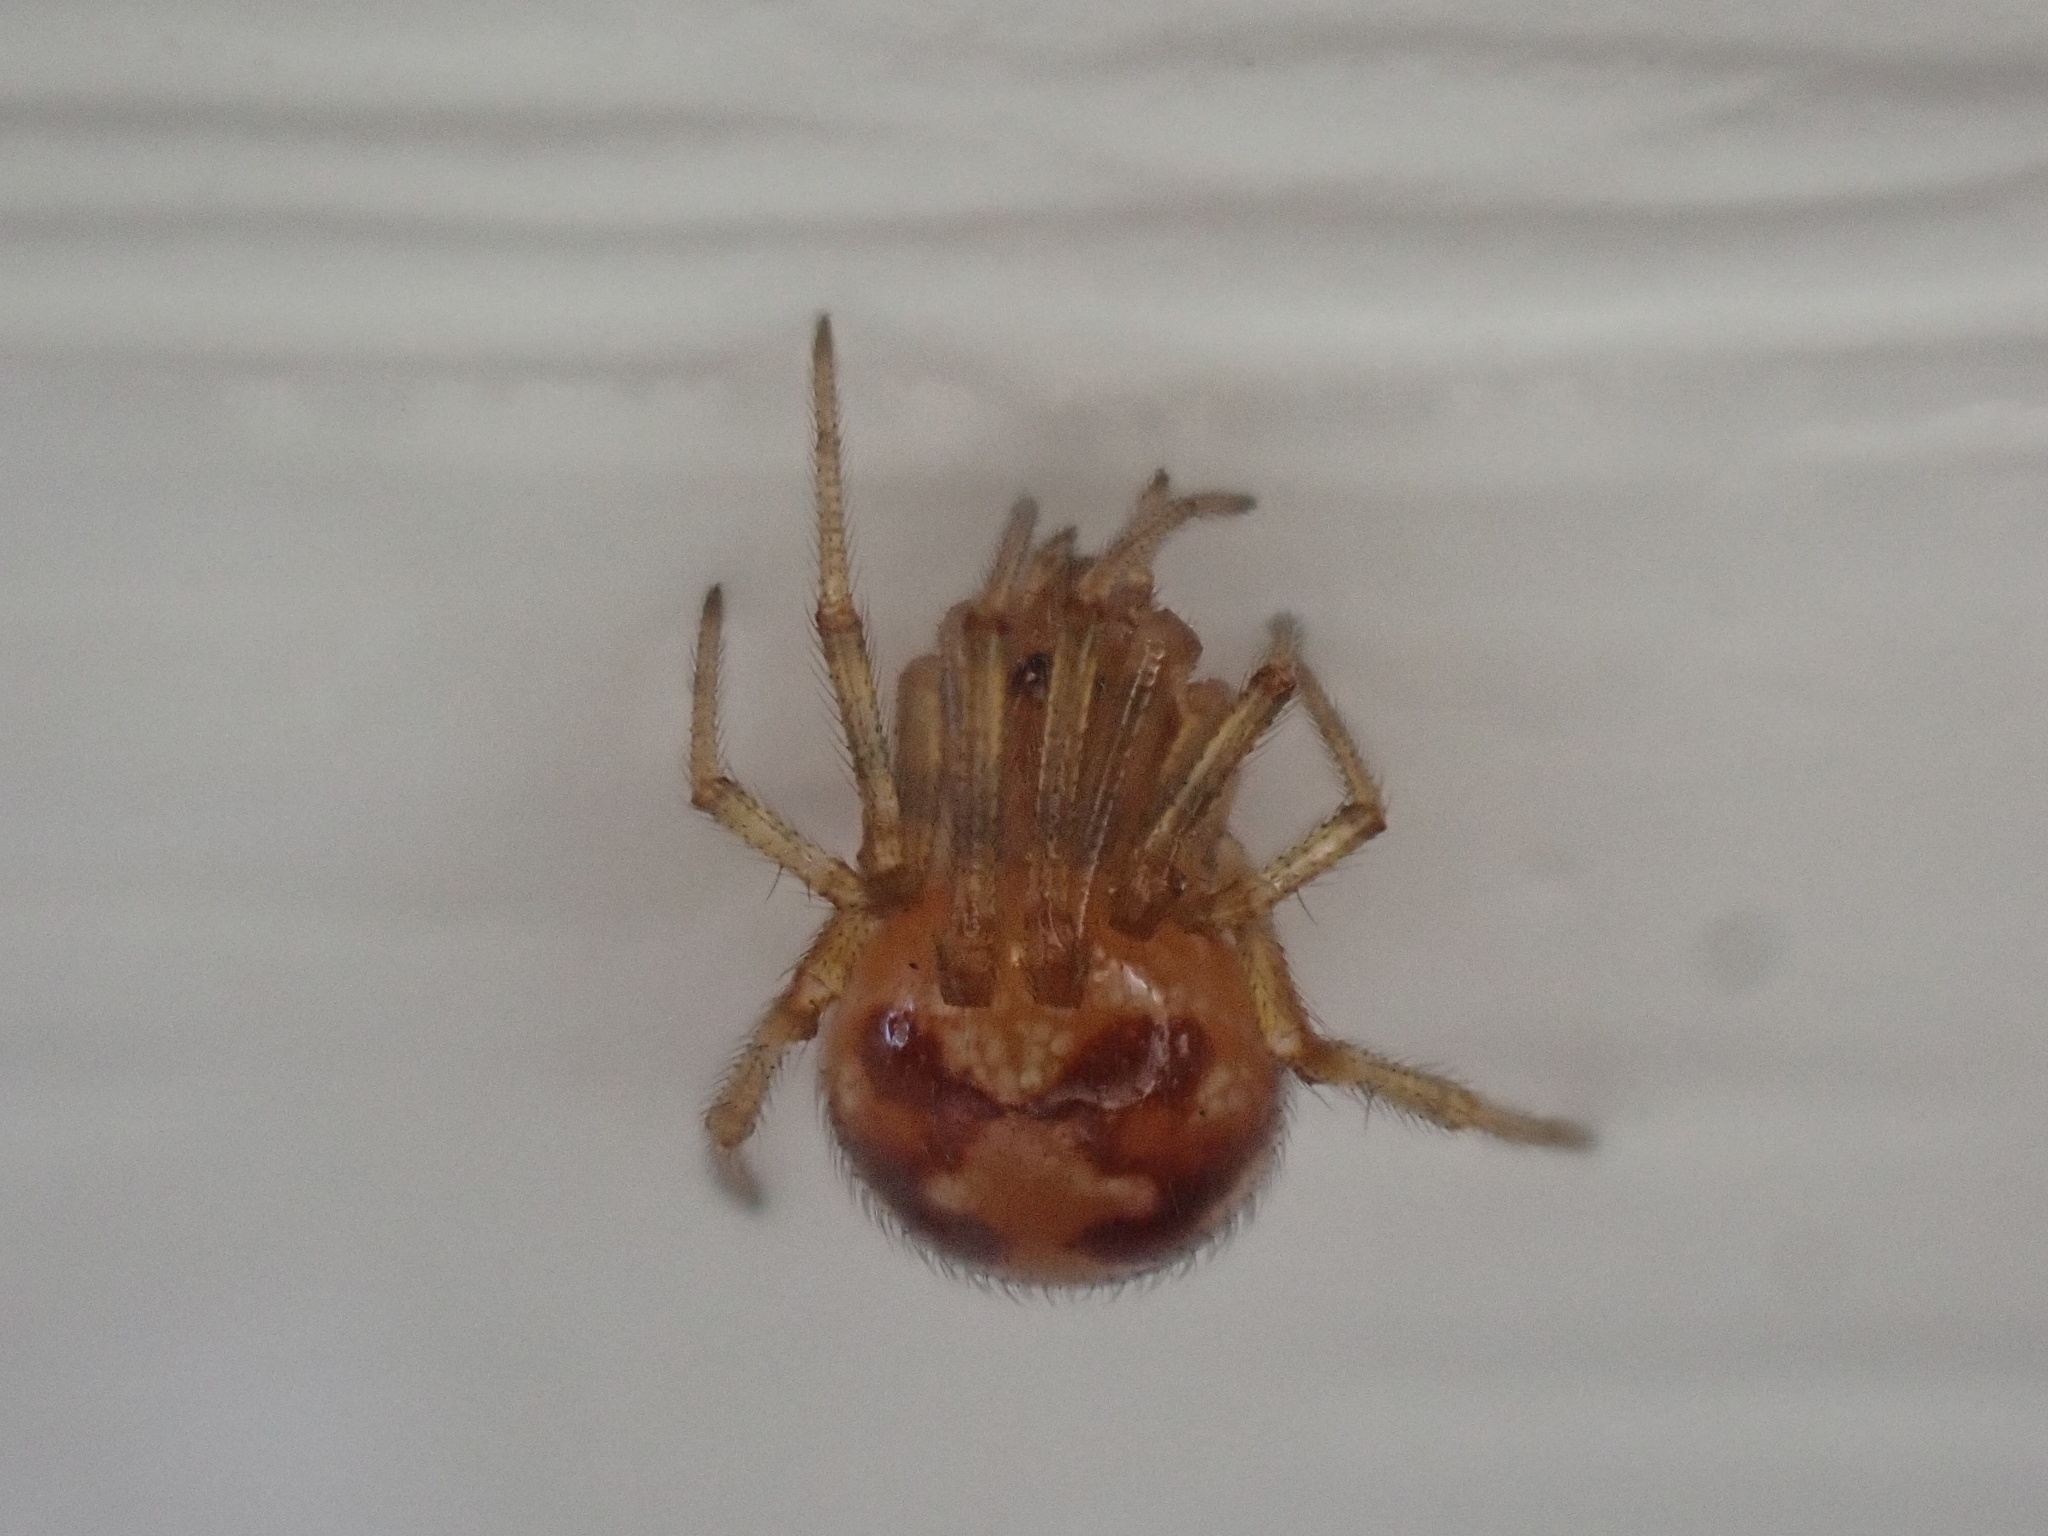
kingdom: Animalia
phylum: Arthropoda
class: Arachnida
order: Araneae
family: Theridiidae
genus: Steatoda
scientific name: Steatoda triangulosa
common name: Triangulate bud spider
